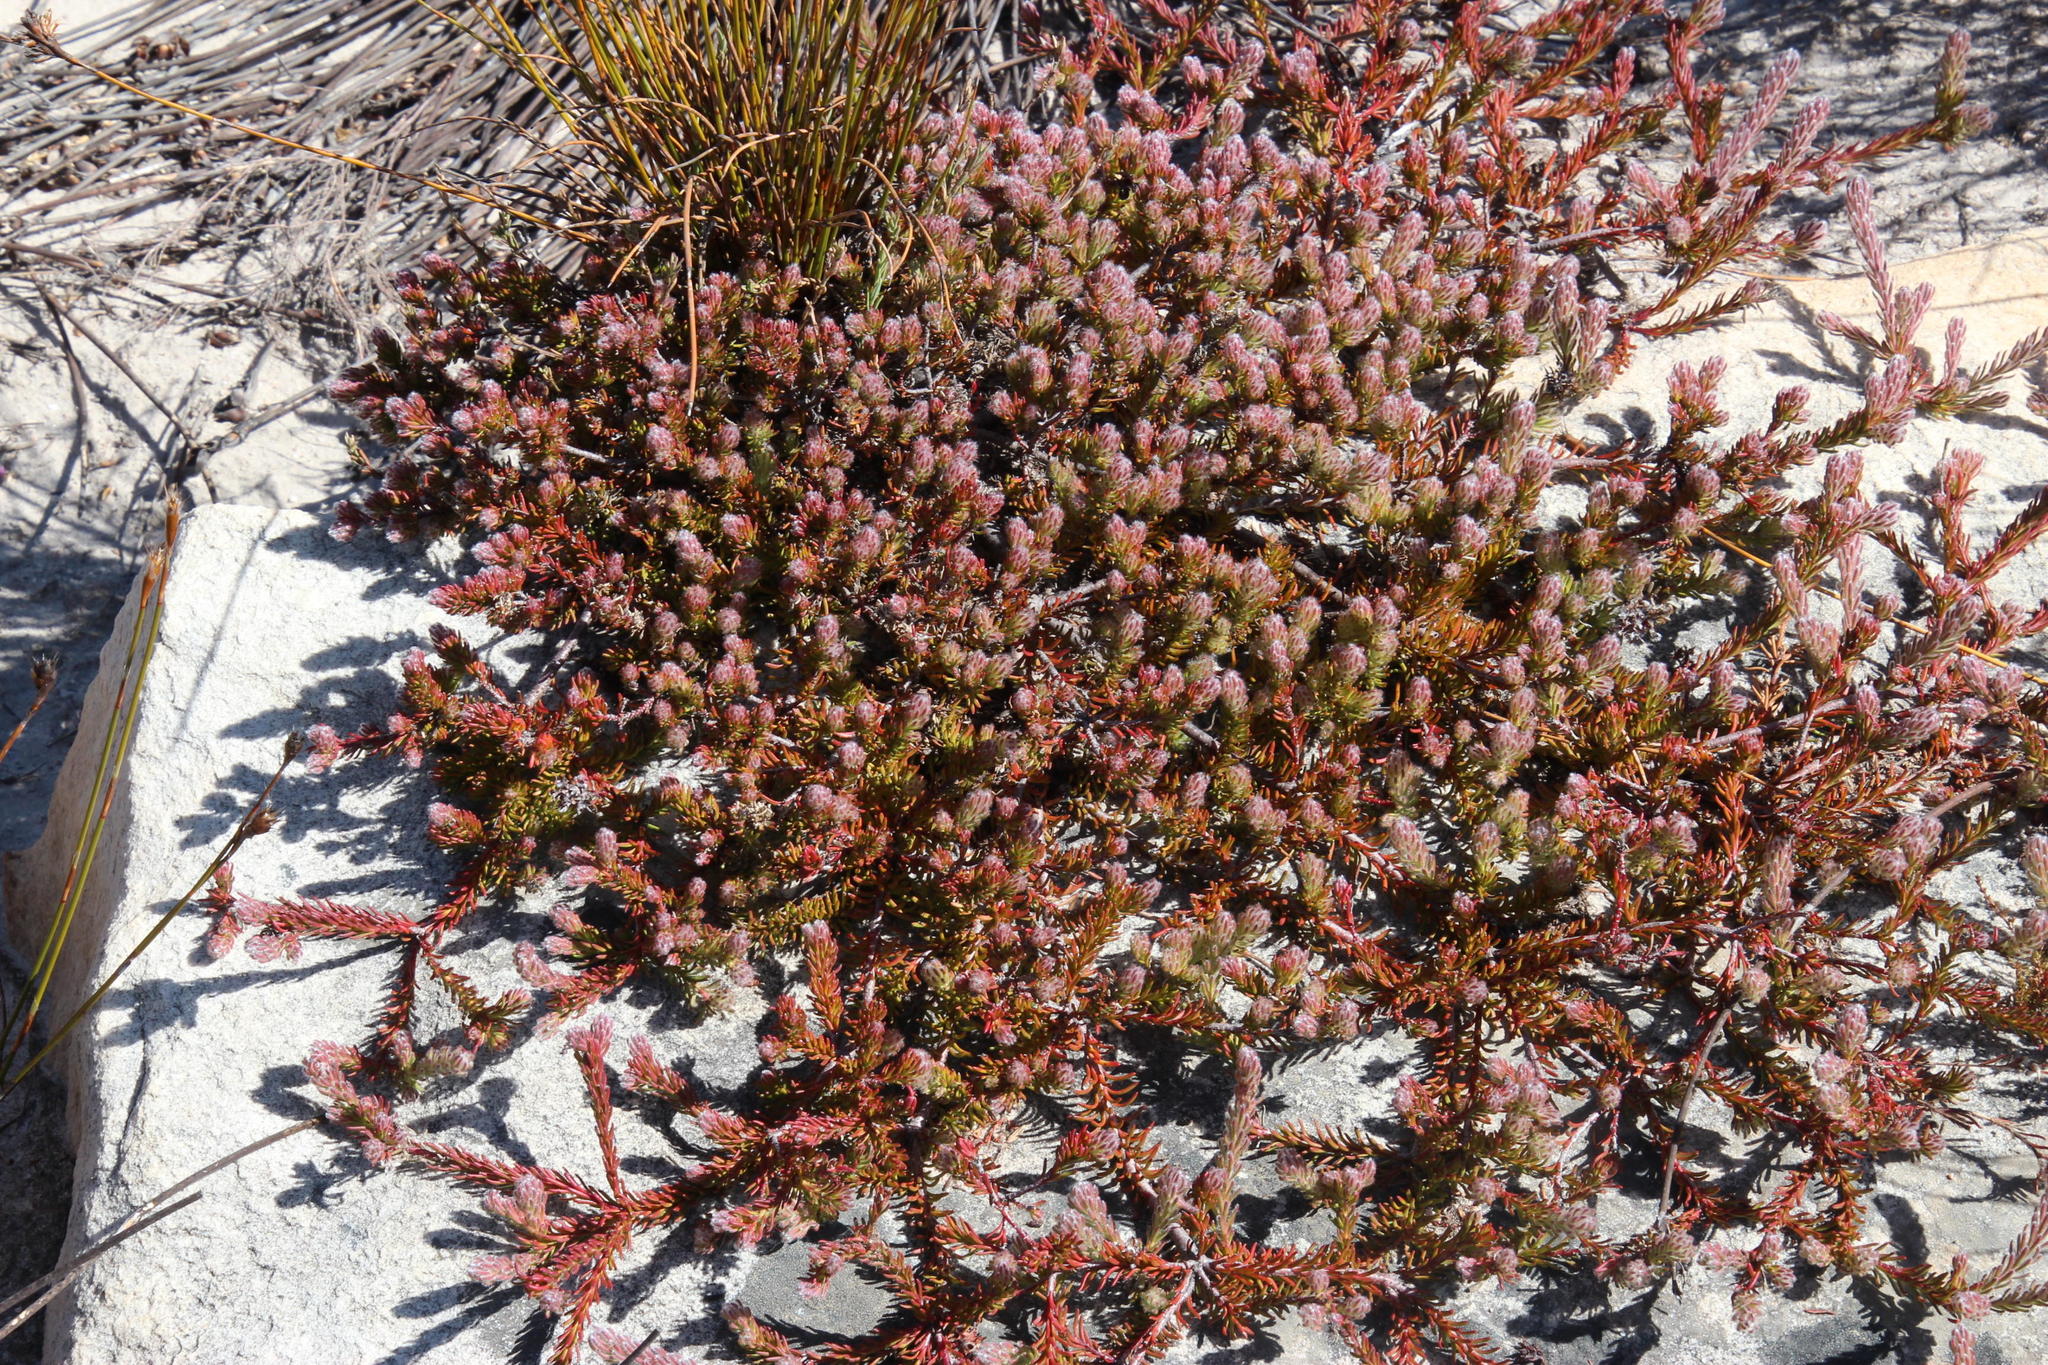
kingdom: Plantae
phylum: Tracheophyta
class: Magnoliopsida
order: Proteales
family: Proteaceae
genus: Spatalla
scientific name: Spatalla confusa
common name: Long-tube spoon
